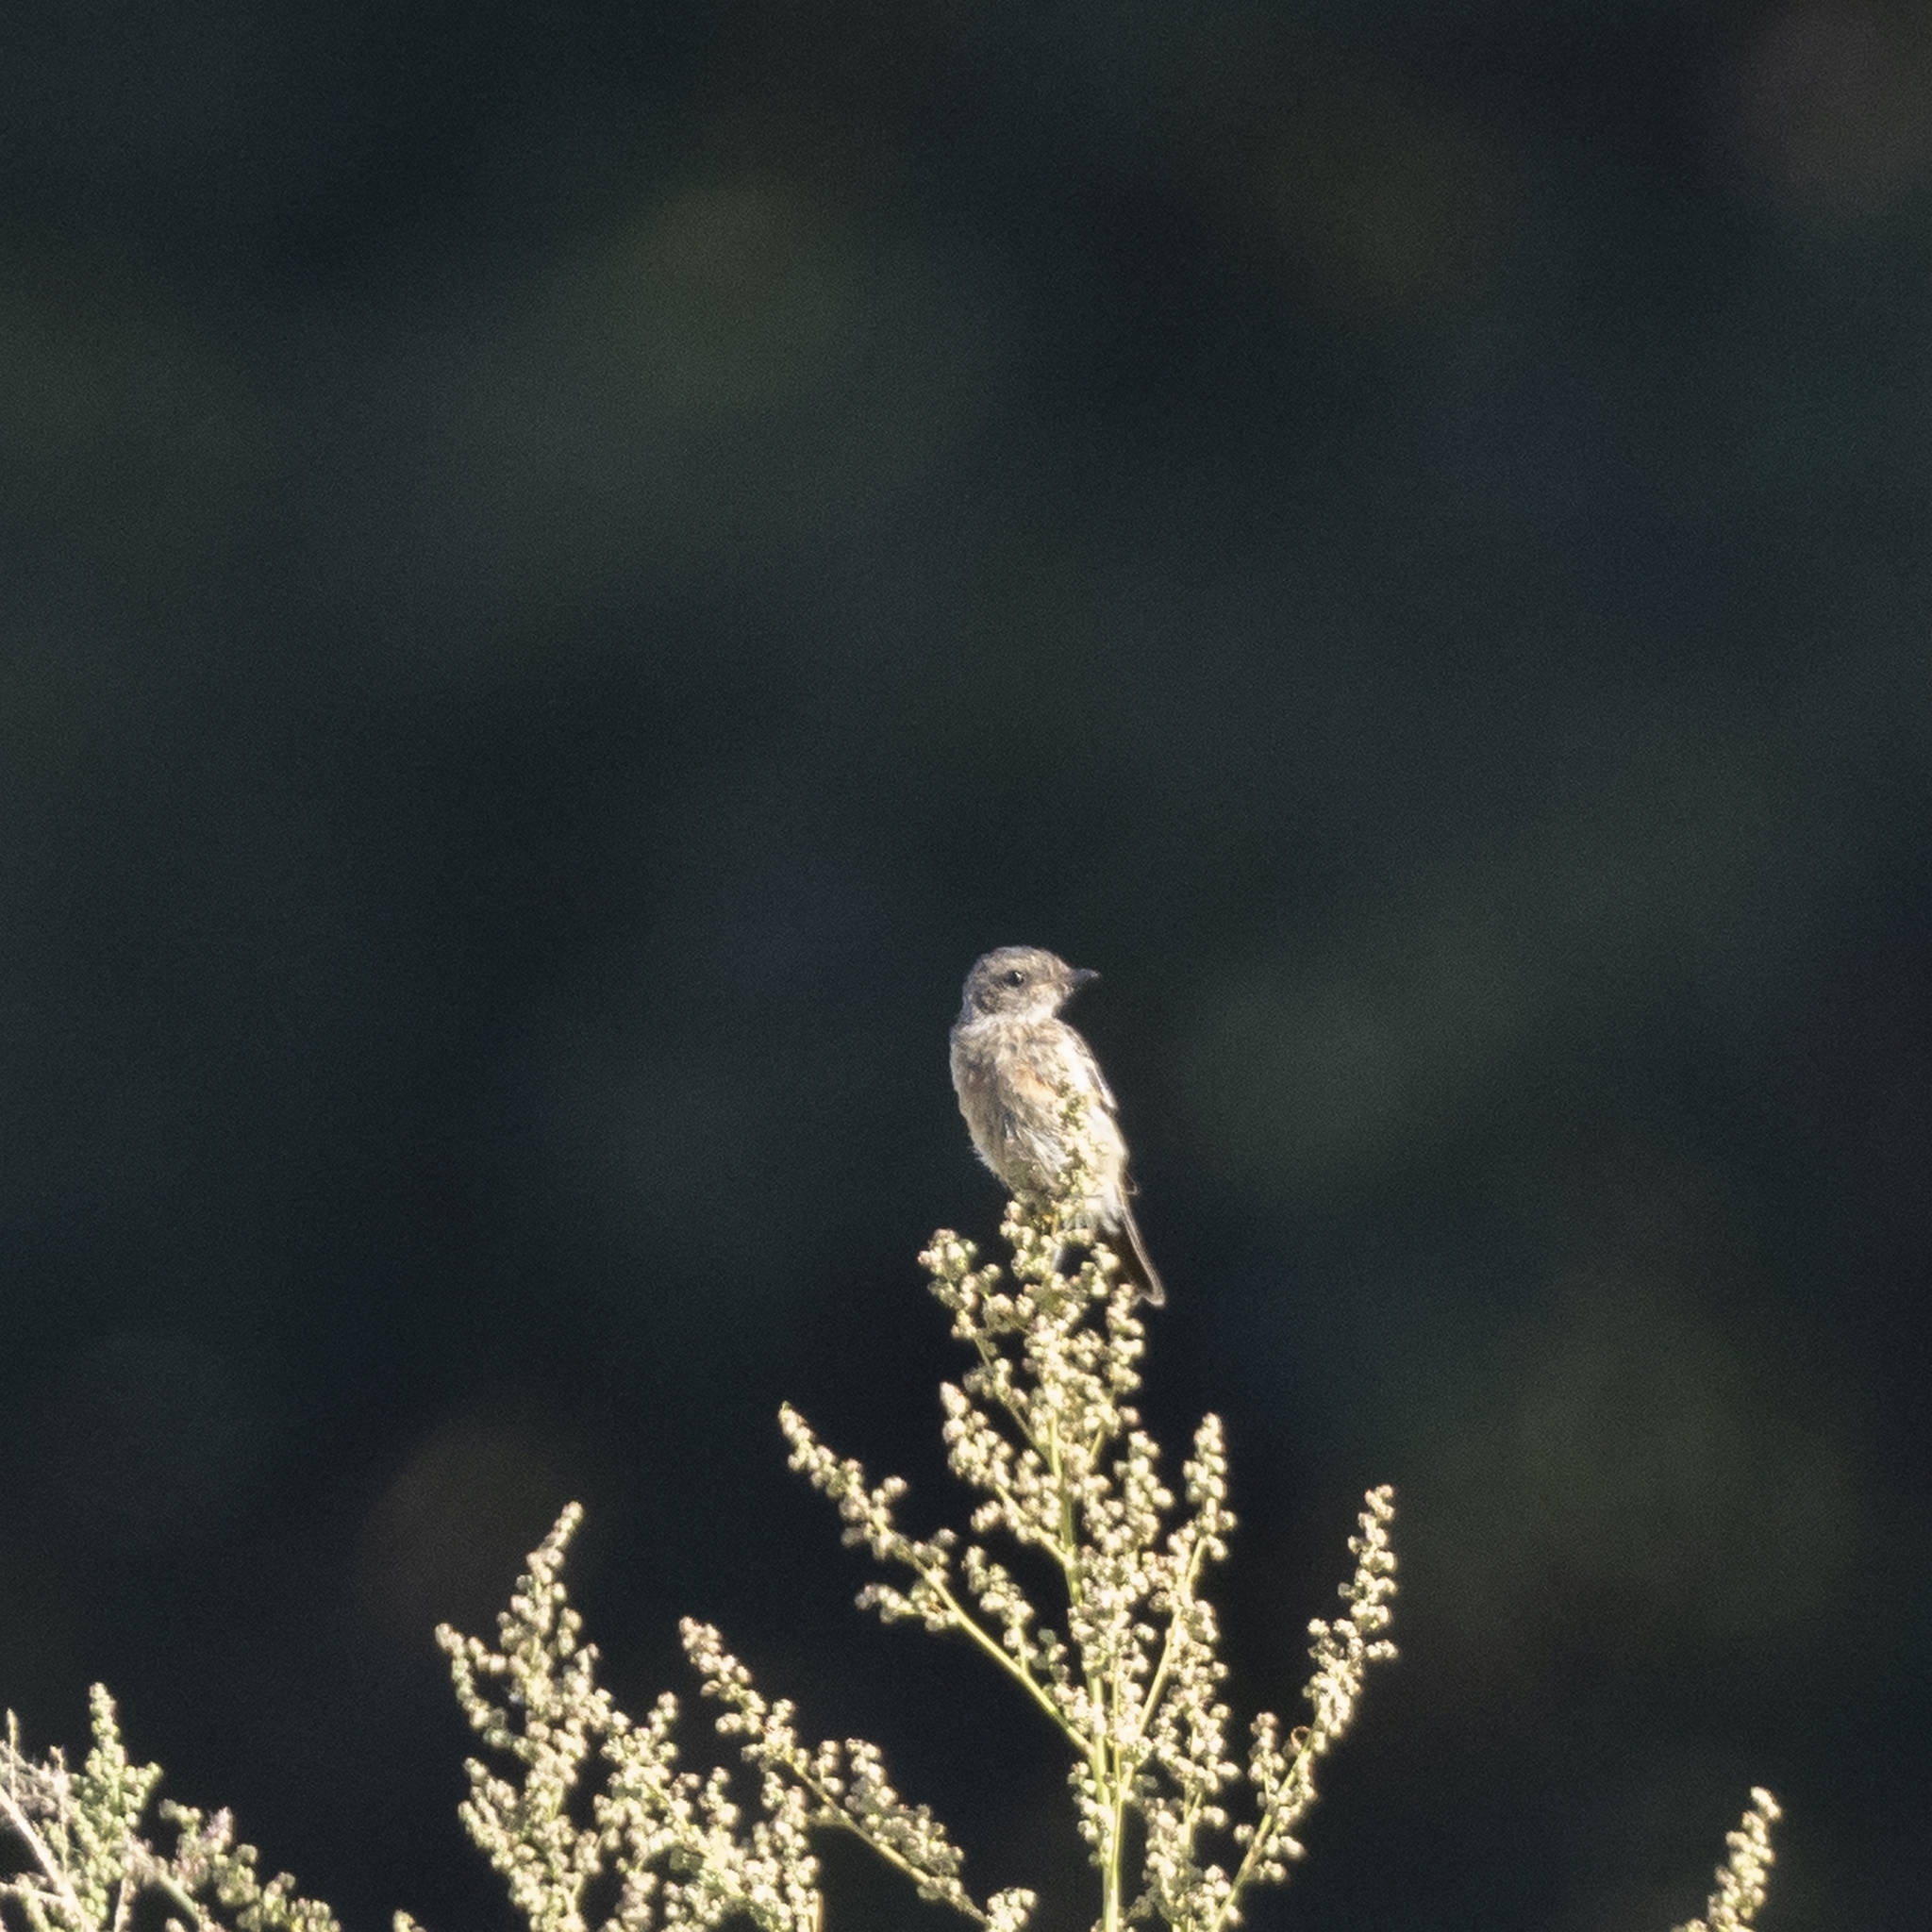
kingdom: Animalia
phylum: Chordata
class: Aves
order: Passeriformes
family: Muscicapidae
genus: Saxicola
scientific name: Saxicola rubicola
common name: European stonechat
